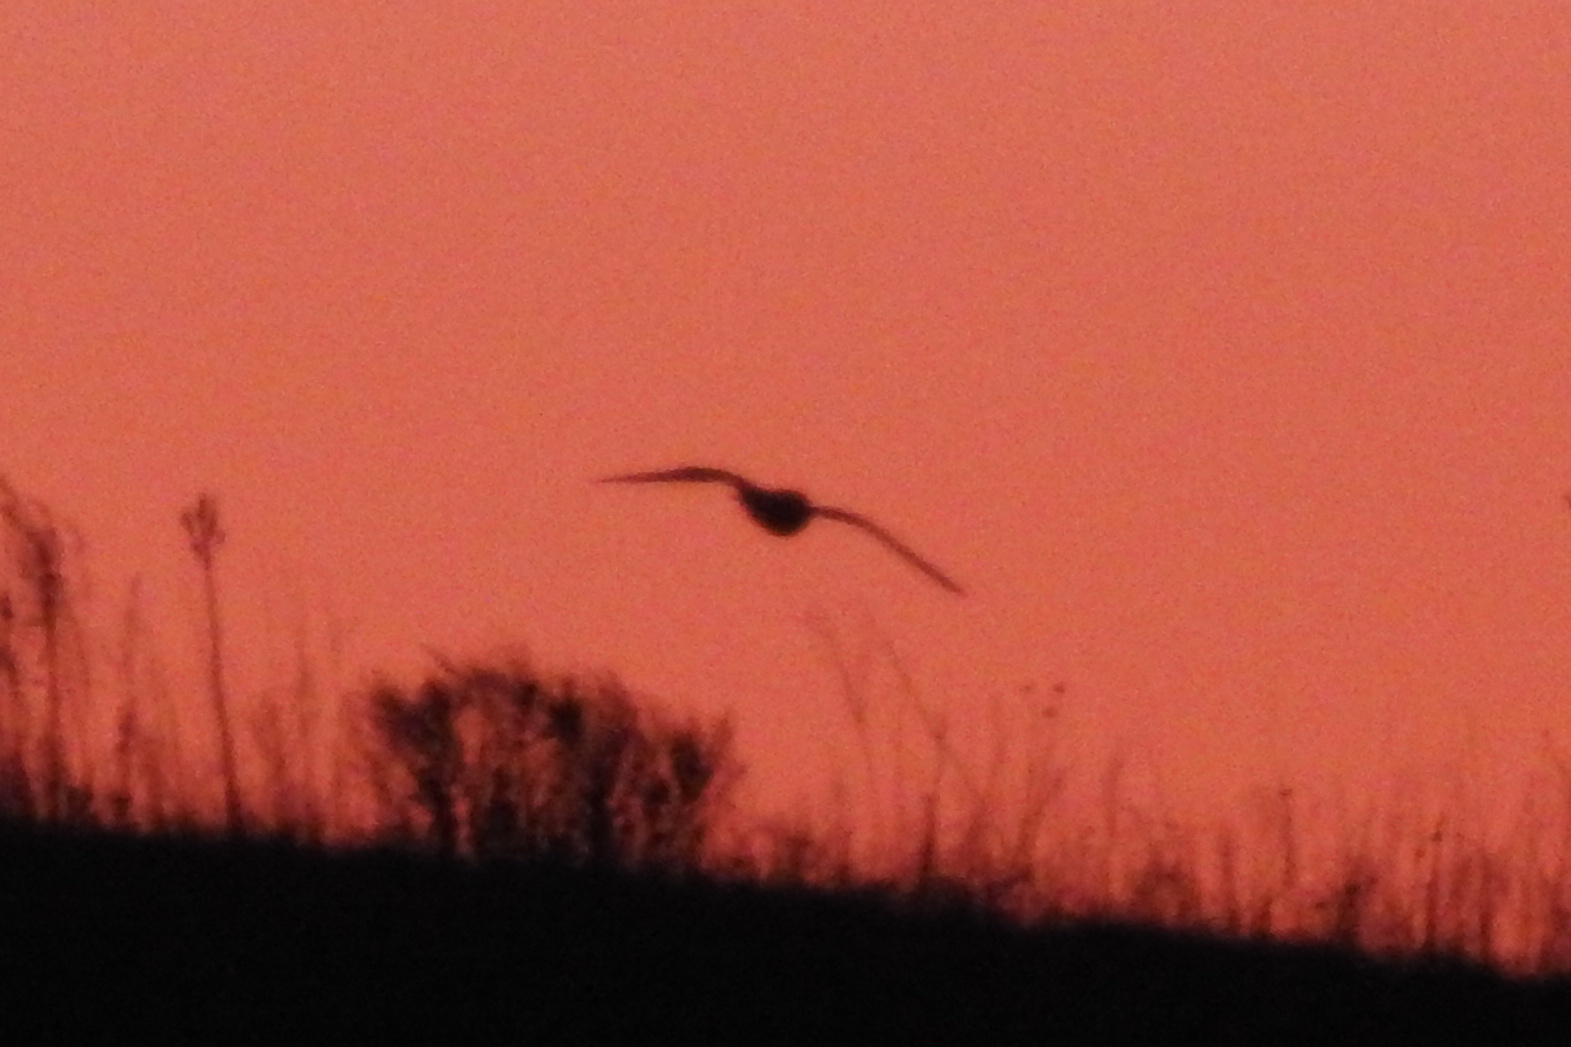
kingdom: Animalia
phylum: Chordata
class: Aves
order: Strigiformes
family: Strigidae
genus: Asio
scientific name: Asio flammeus
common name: Short-eared owl
